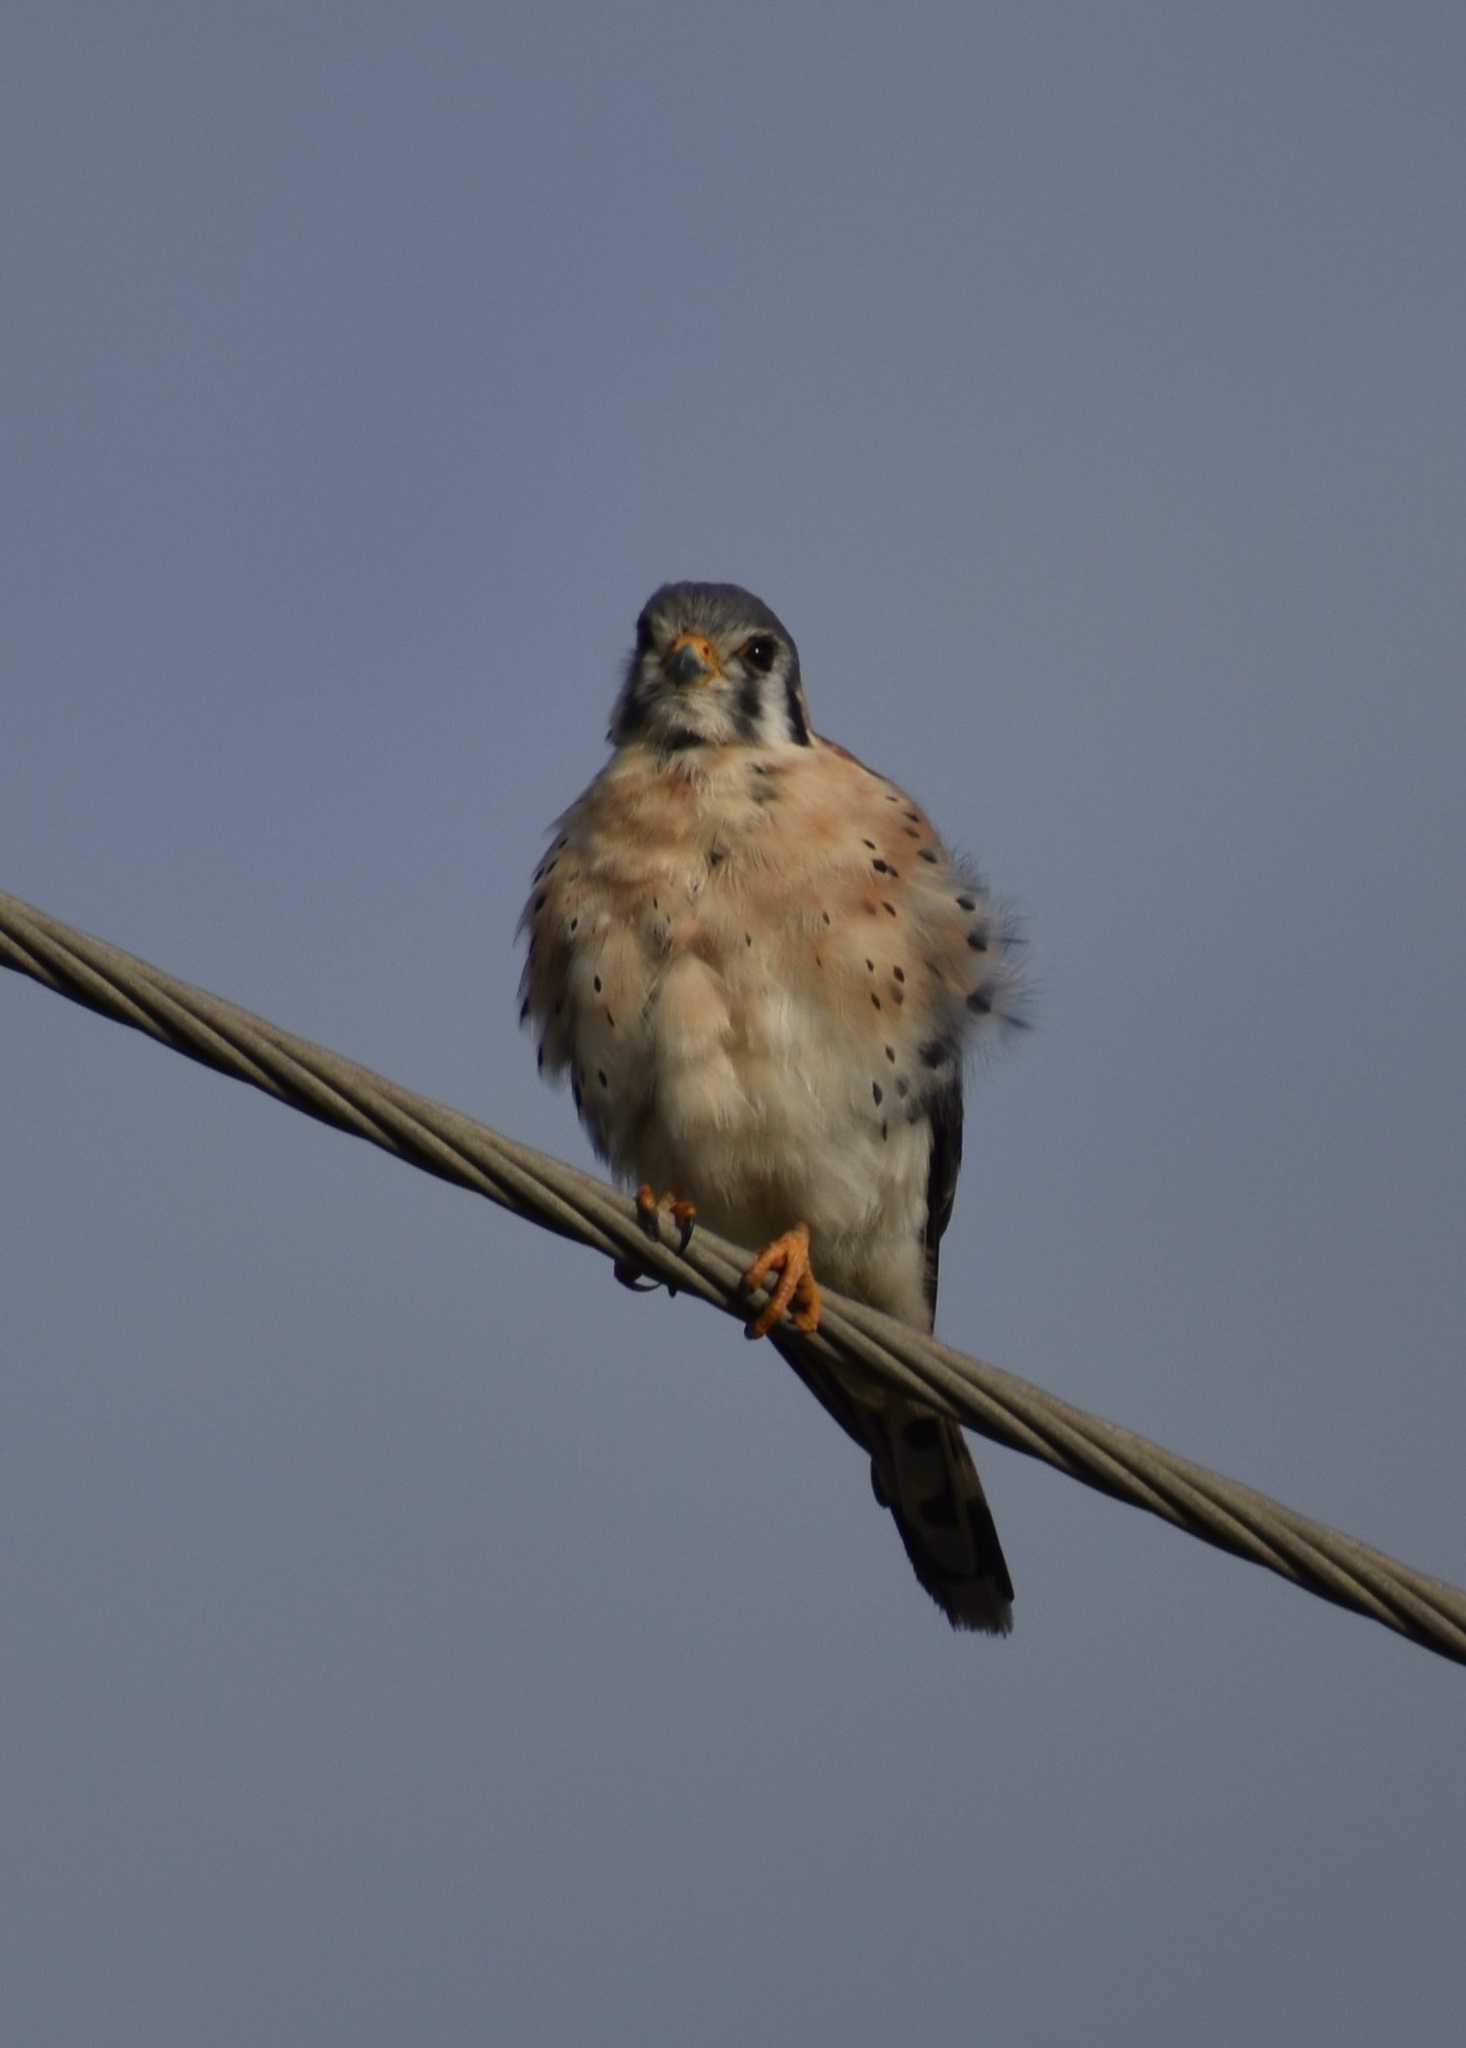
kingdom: Animalia
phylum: Chordata
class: Aves
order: Falconiformes
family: Falconidae
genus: Falco
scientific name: Falco sparverius
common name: American kestrel
